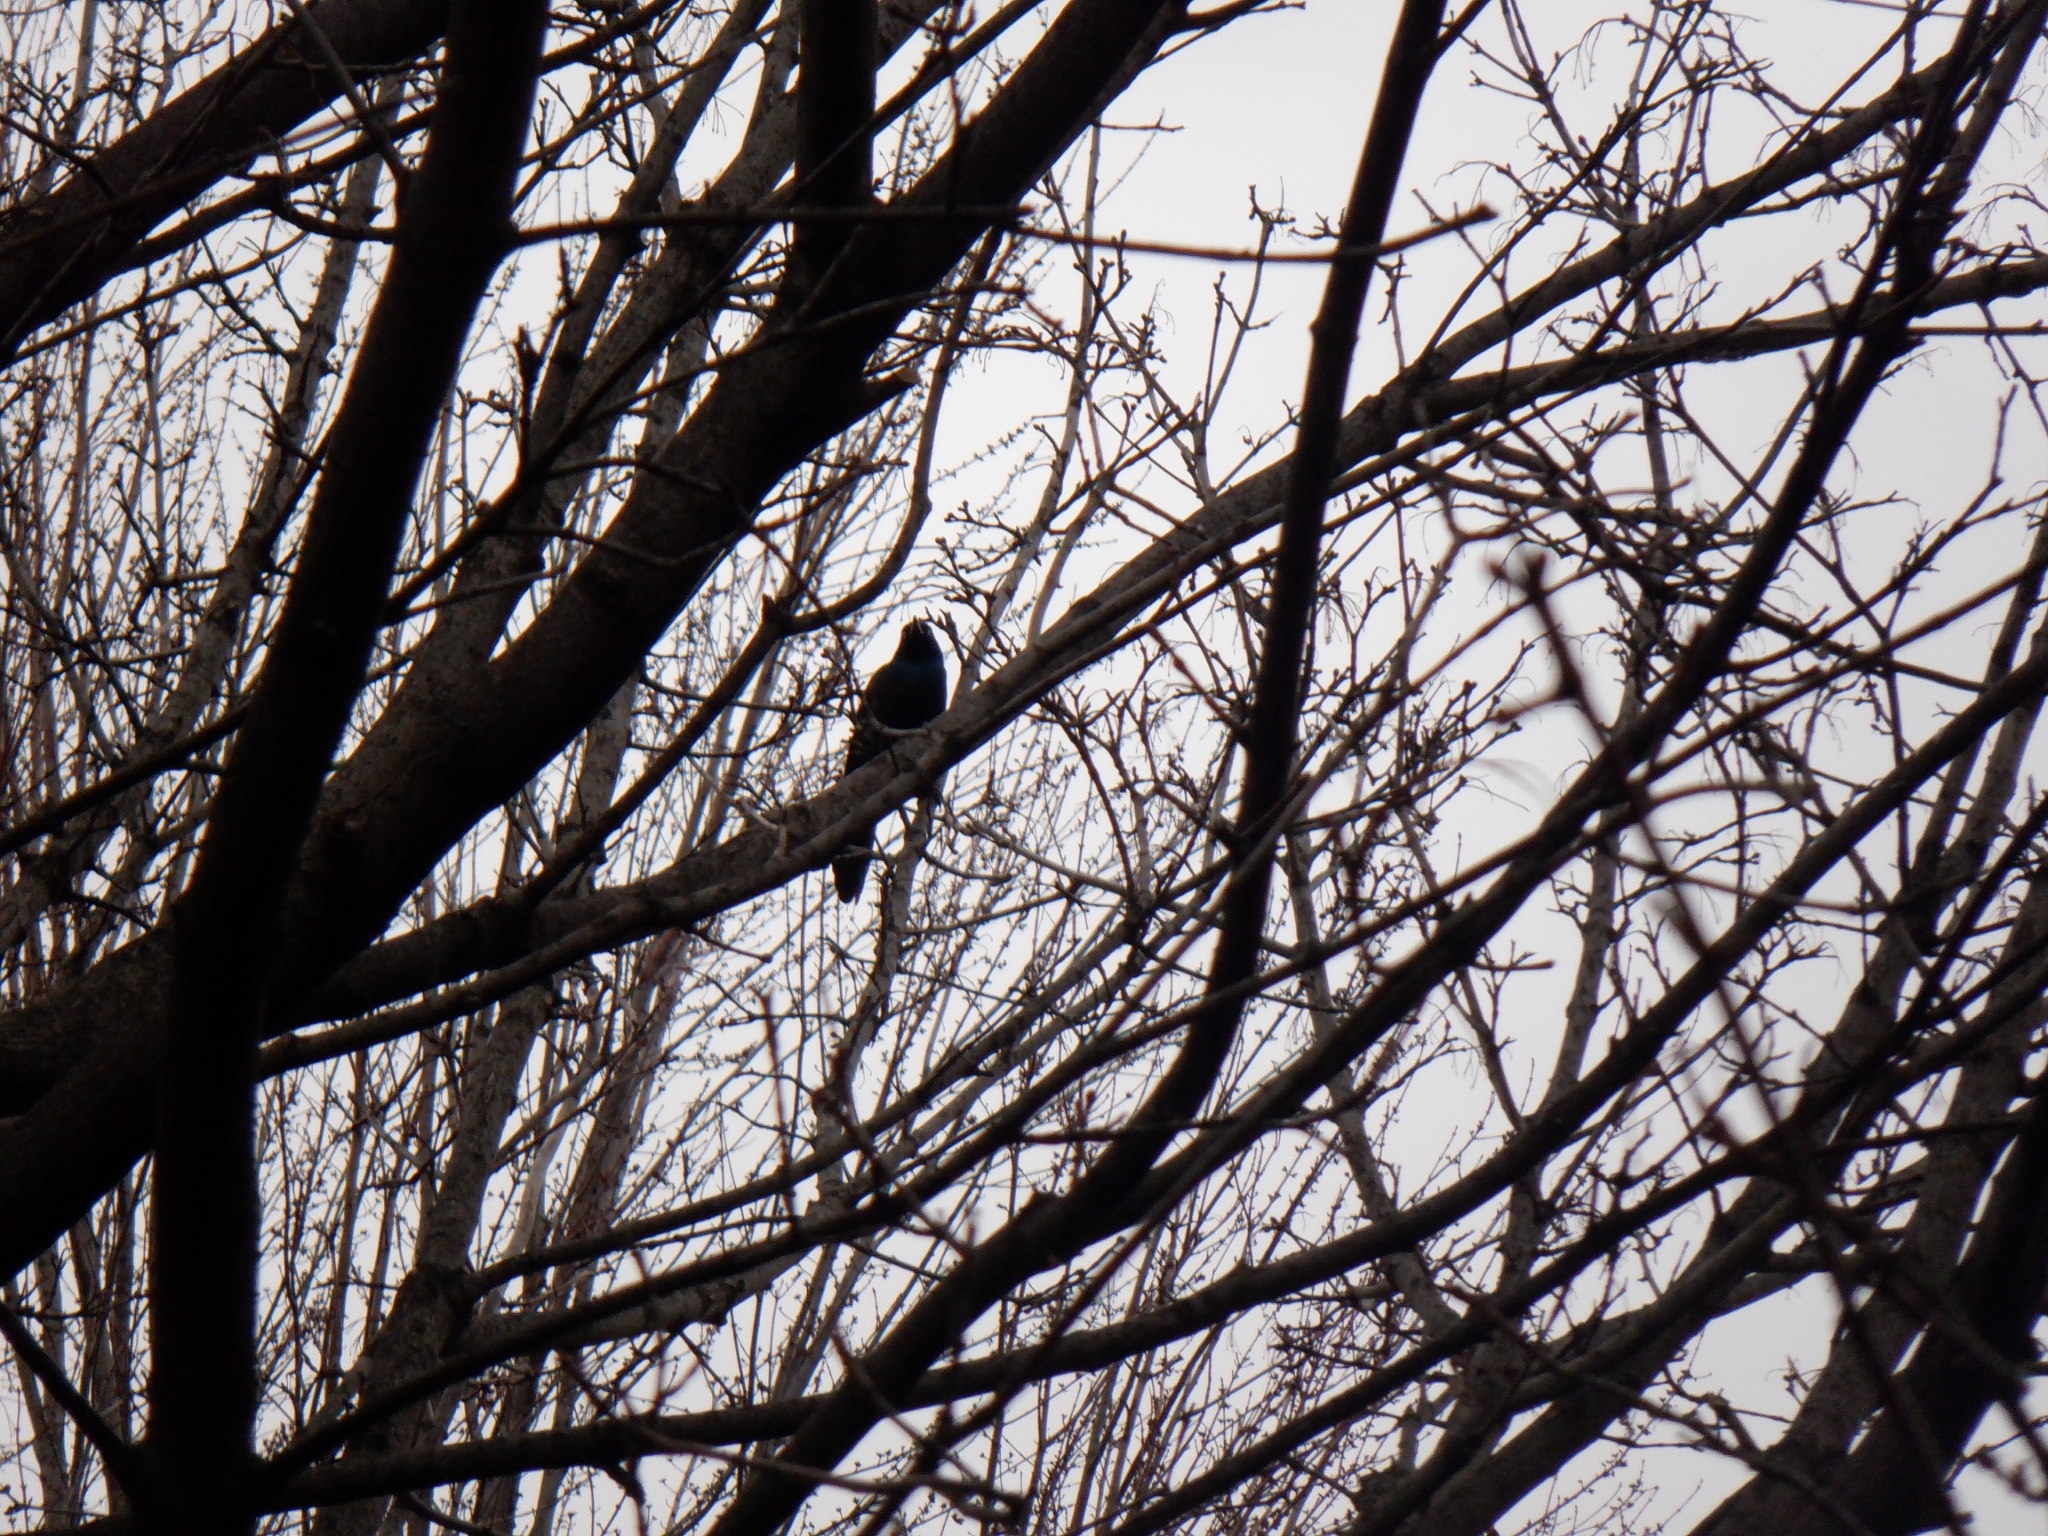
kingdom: Animalia
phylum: Chordata
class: Aves
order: Passeriformes
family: Icteridae
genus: Quiscalus
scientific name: Quiscalus quiscula
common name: Common grackle
